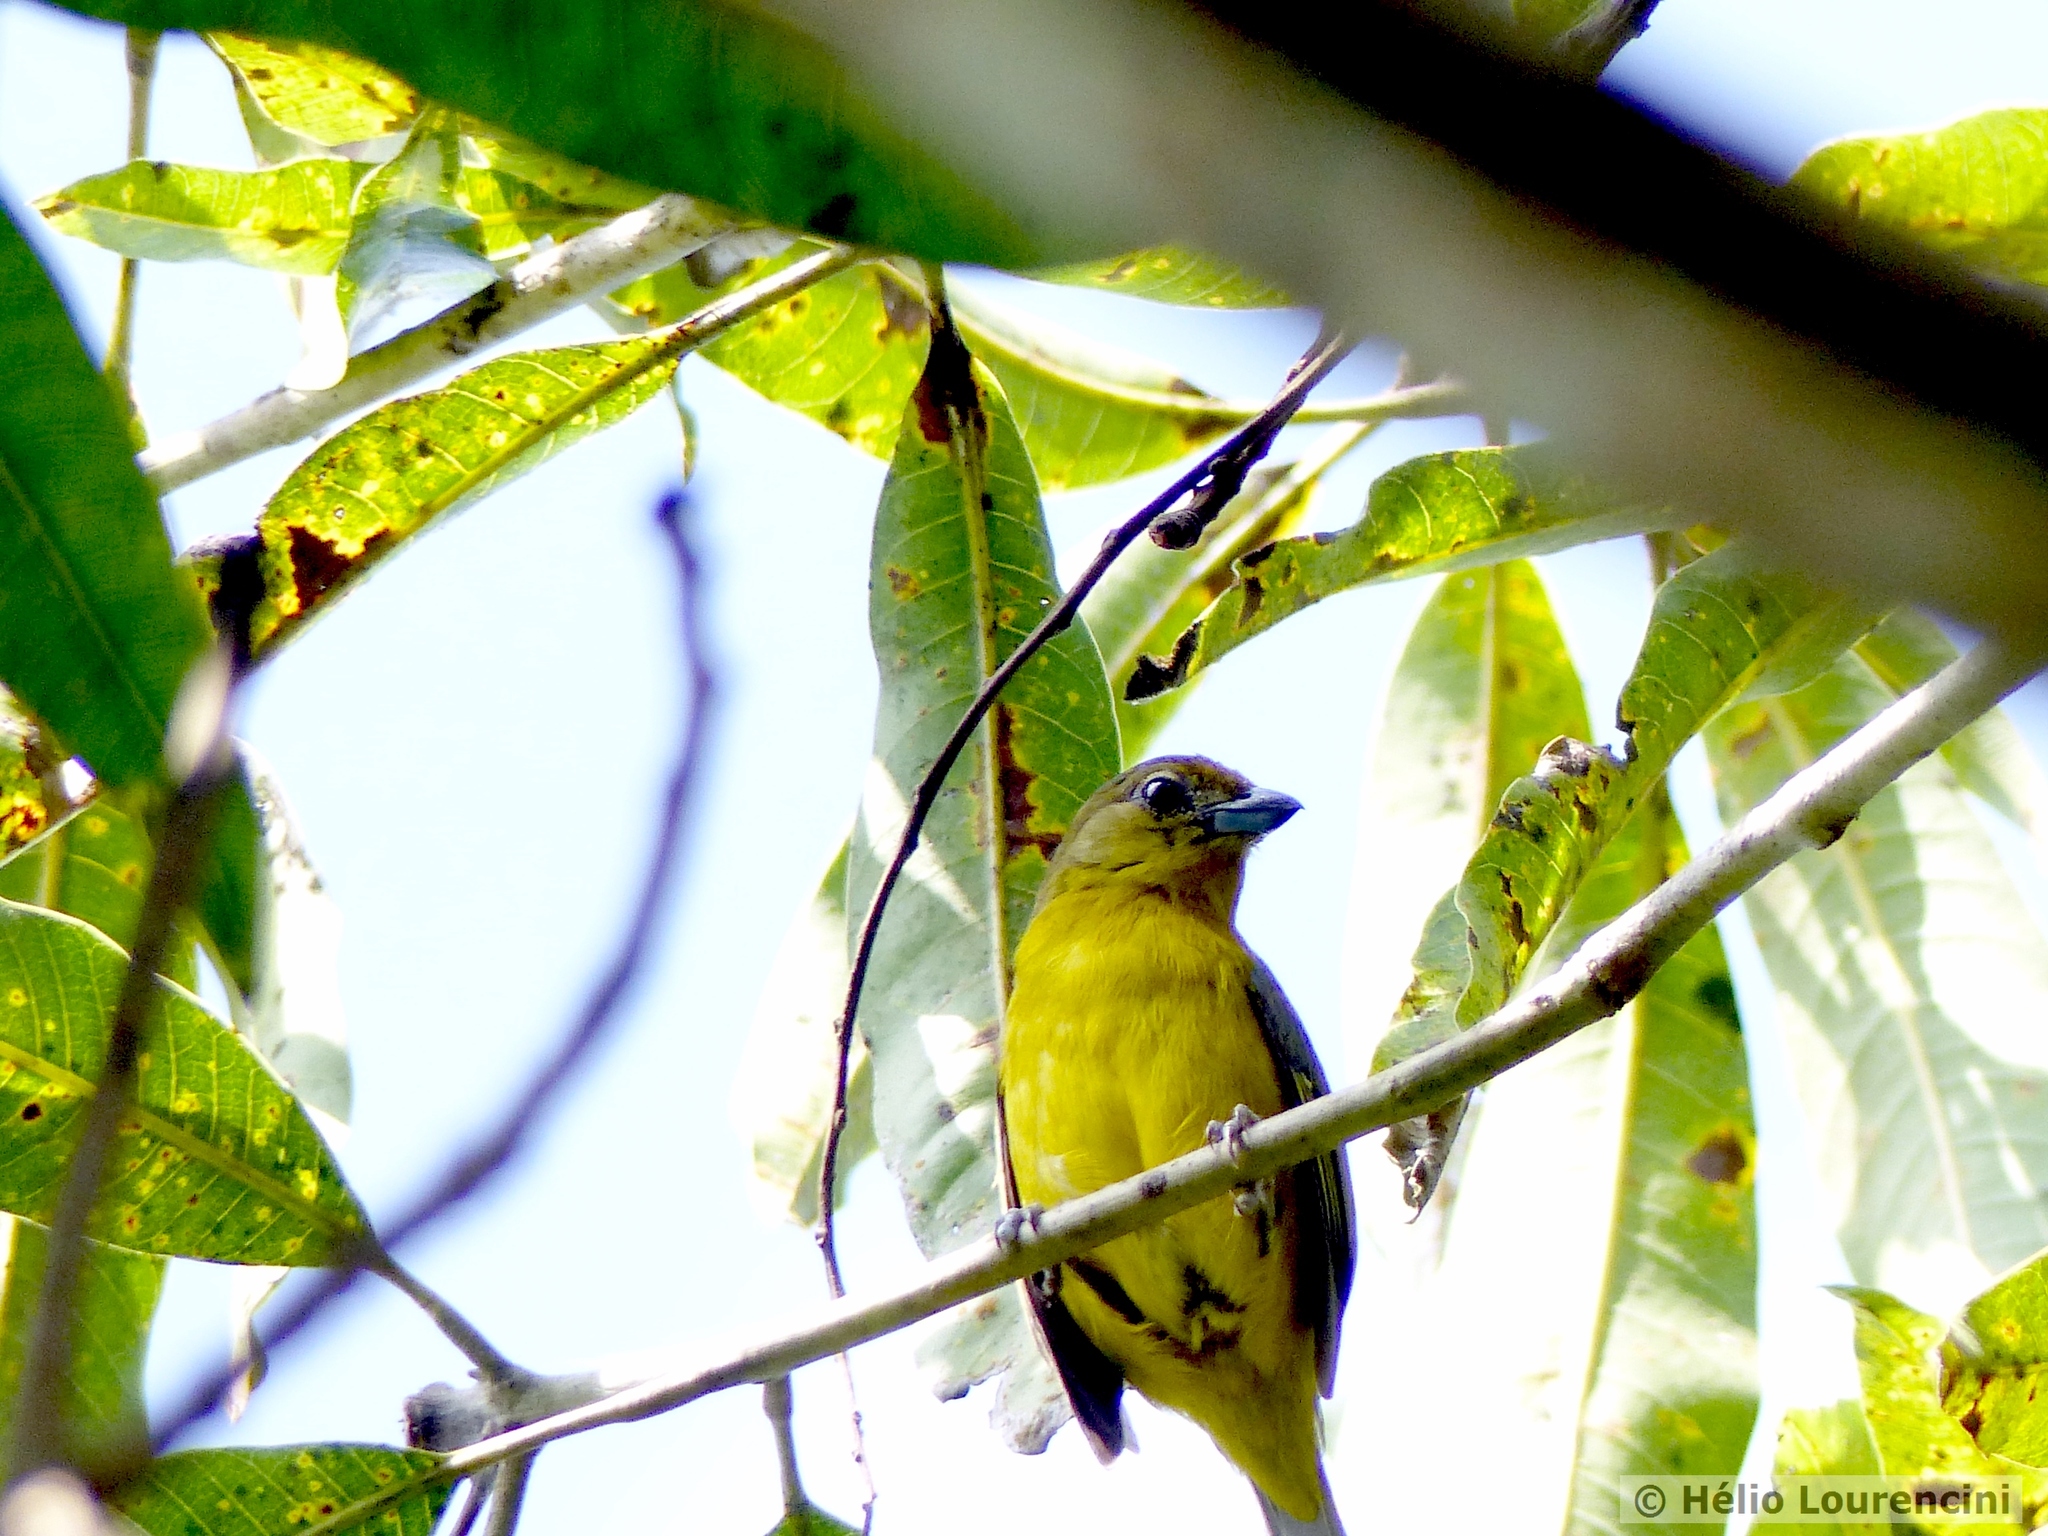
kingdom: Animalia
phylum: Chordata
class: Aves
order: Passeriformes
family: Fringillidae
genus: Euphonia
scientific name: Euphonia violacea
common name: Violaceous euphonia
